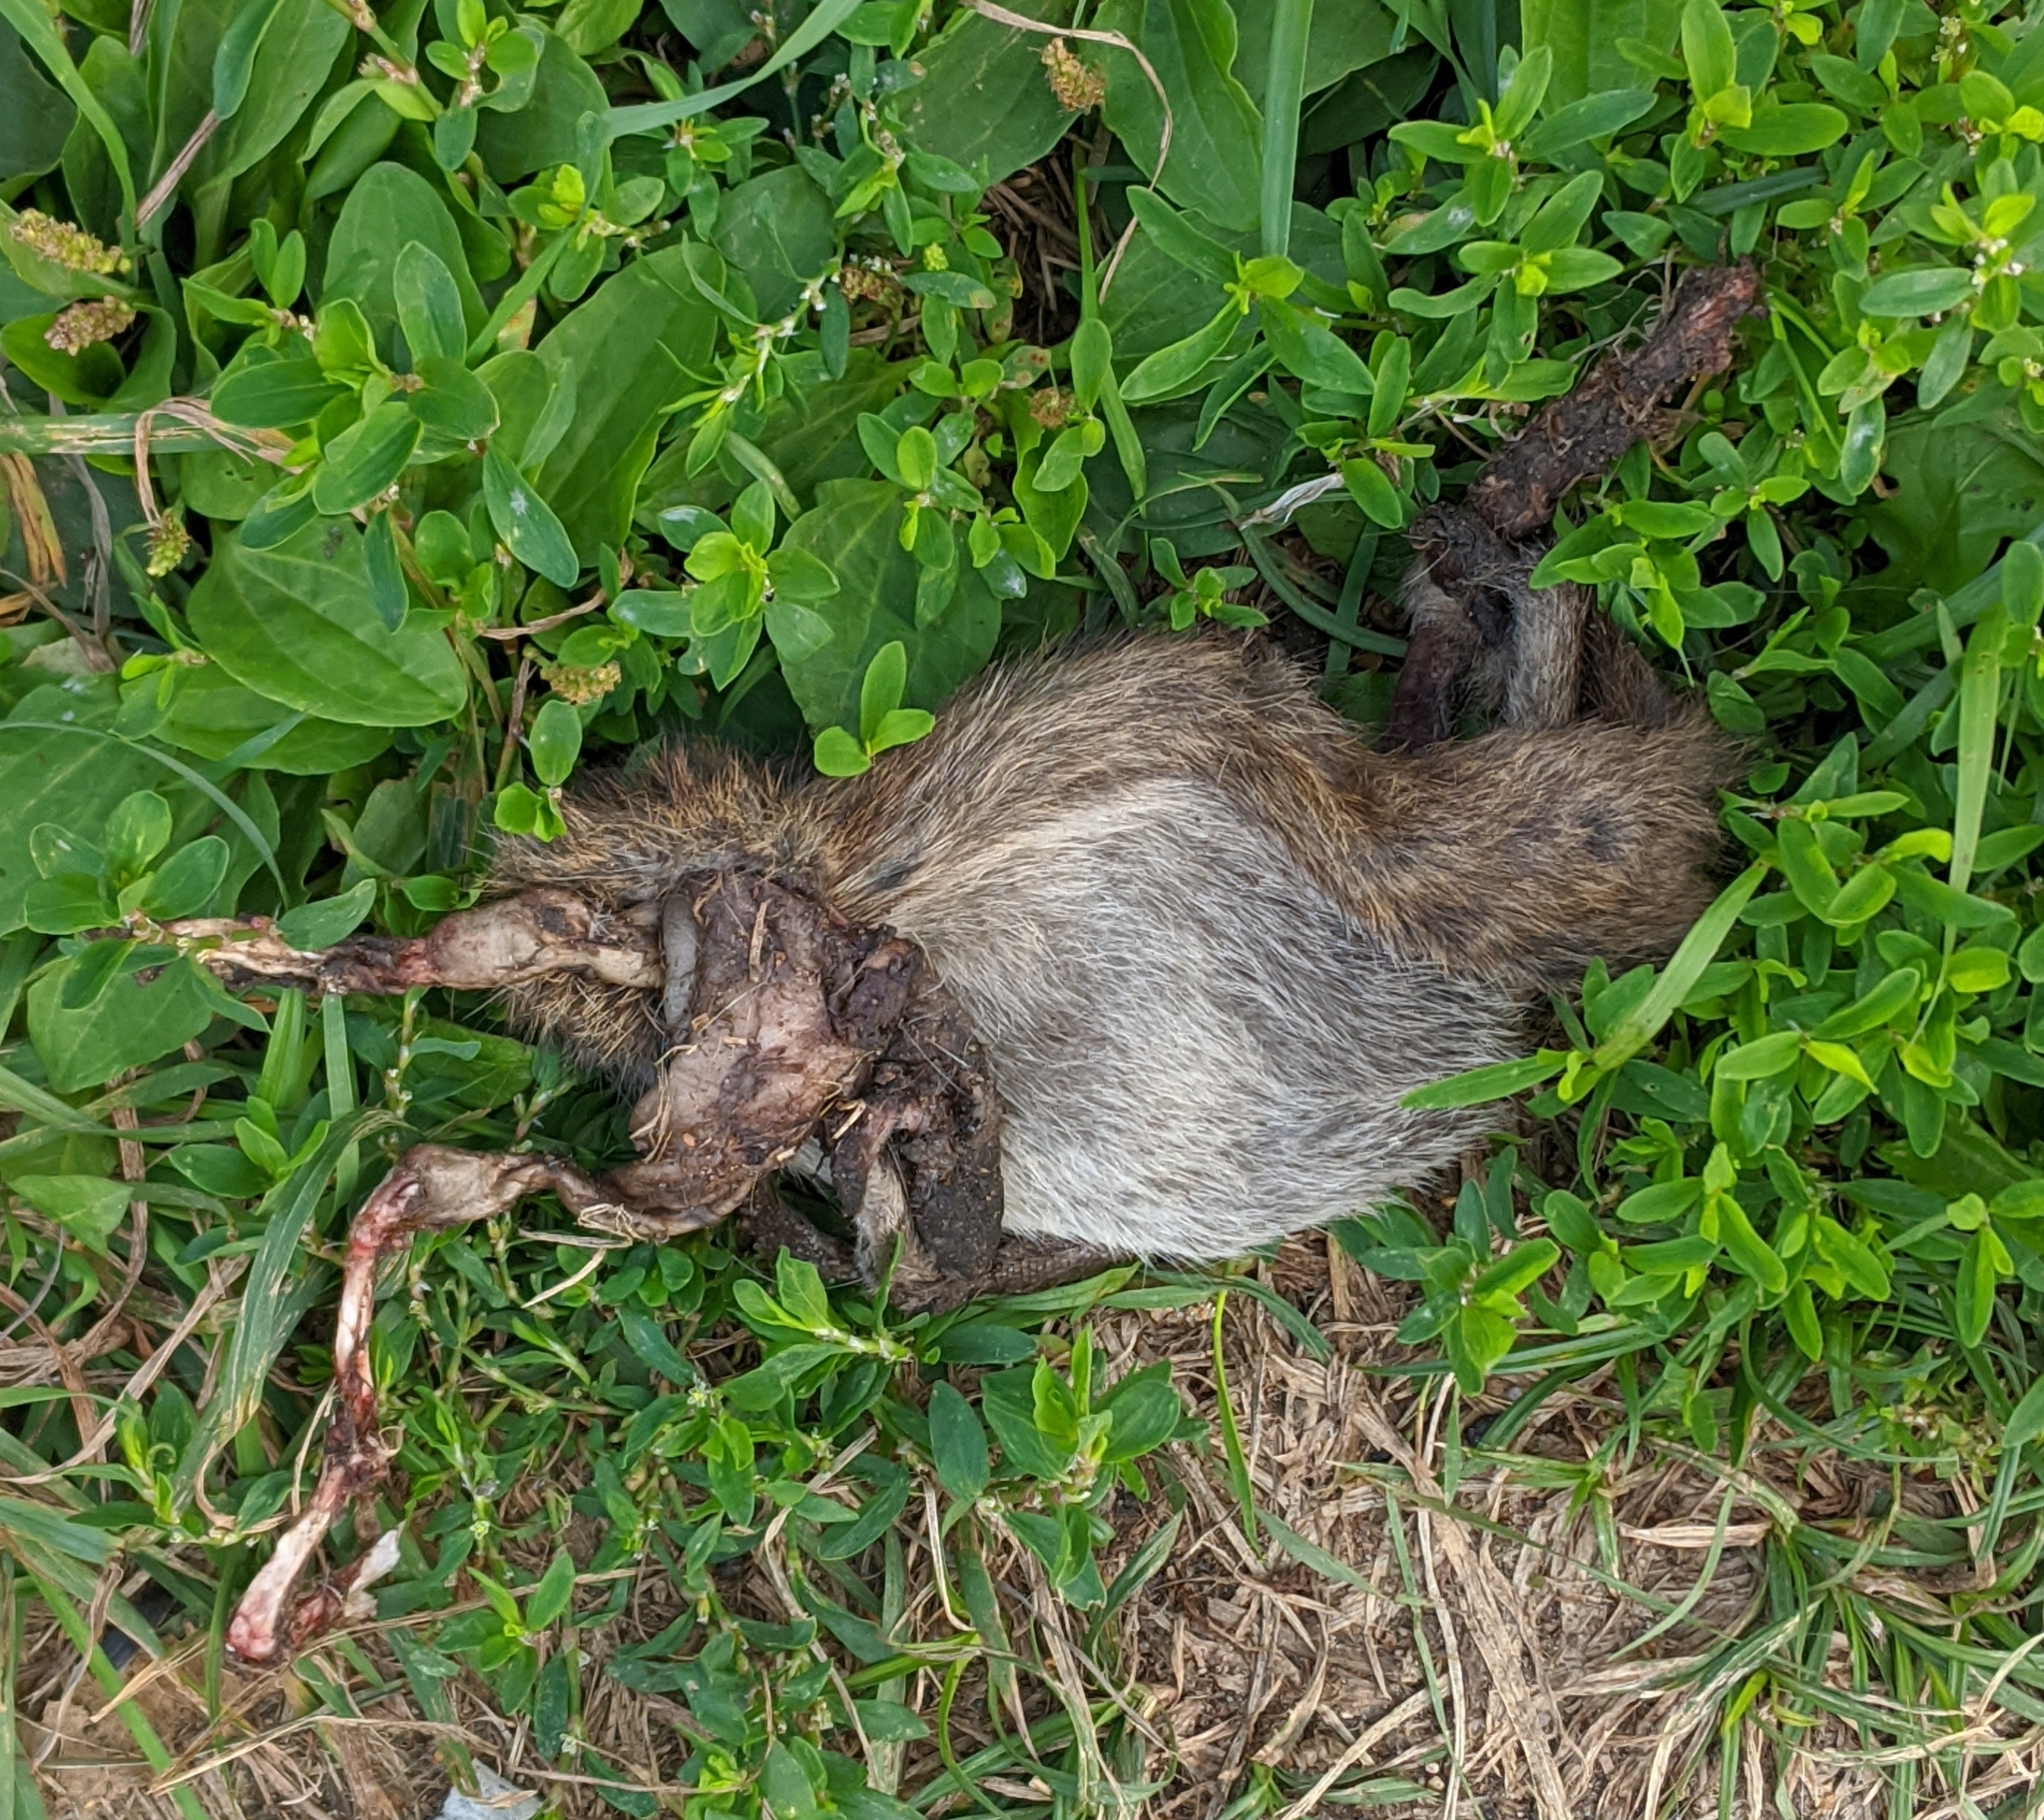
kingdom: Animalia
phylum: Chordata
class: Mammalia
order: Rodentia
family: Muridae
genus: Rattus
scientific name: Rattus norvegicus
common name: Brown rat
